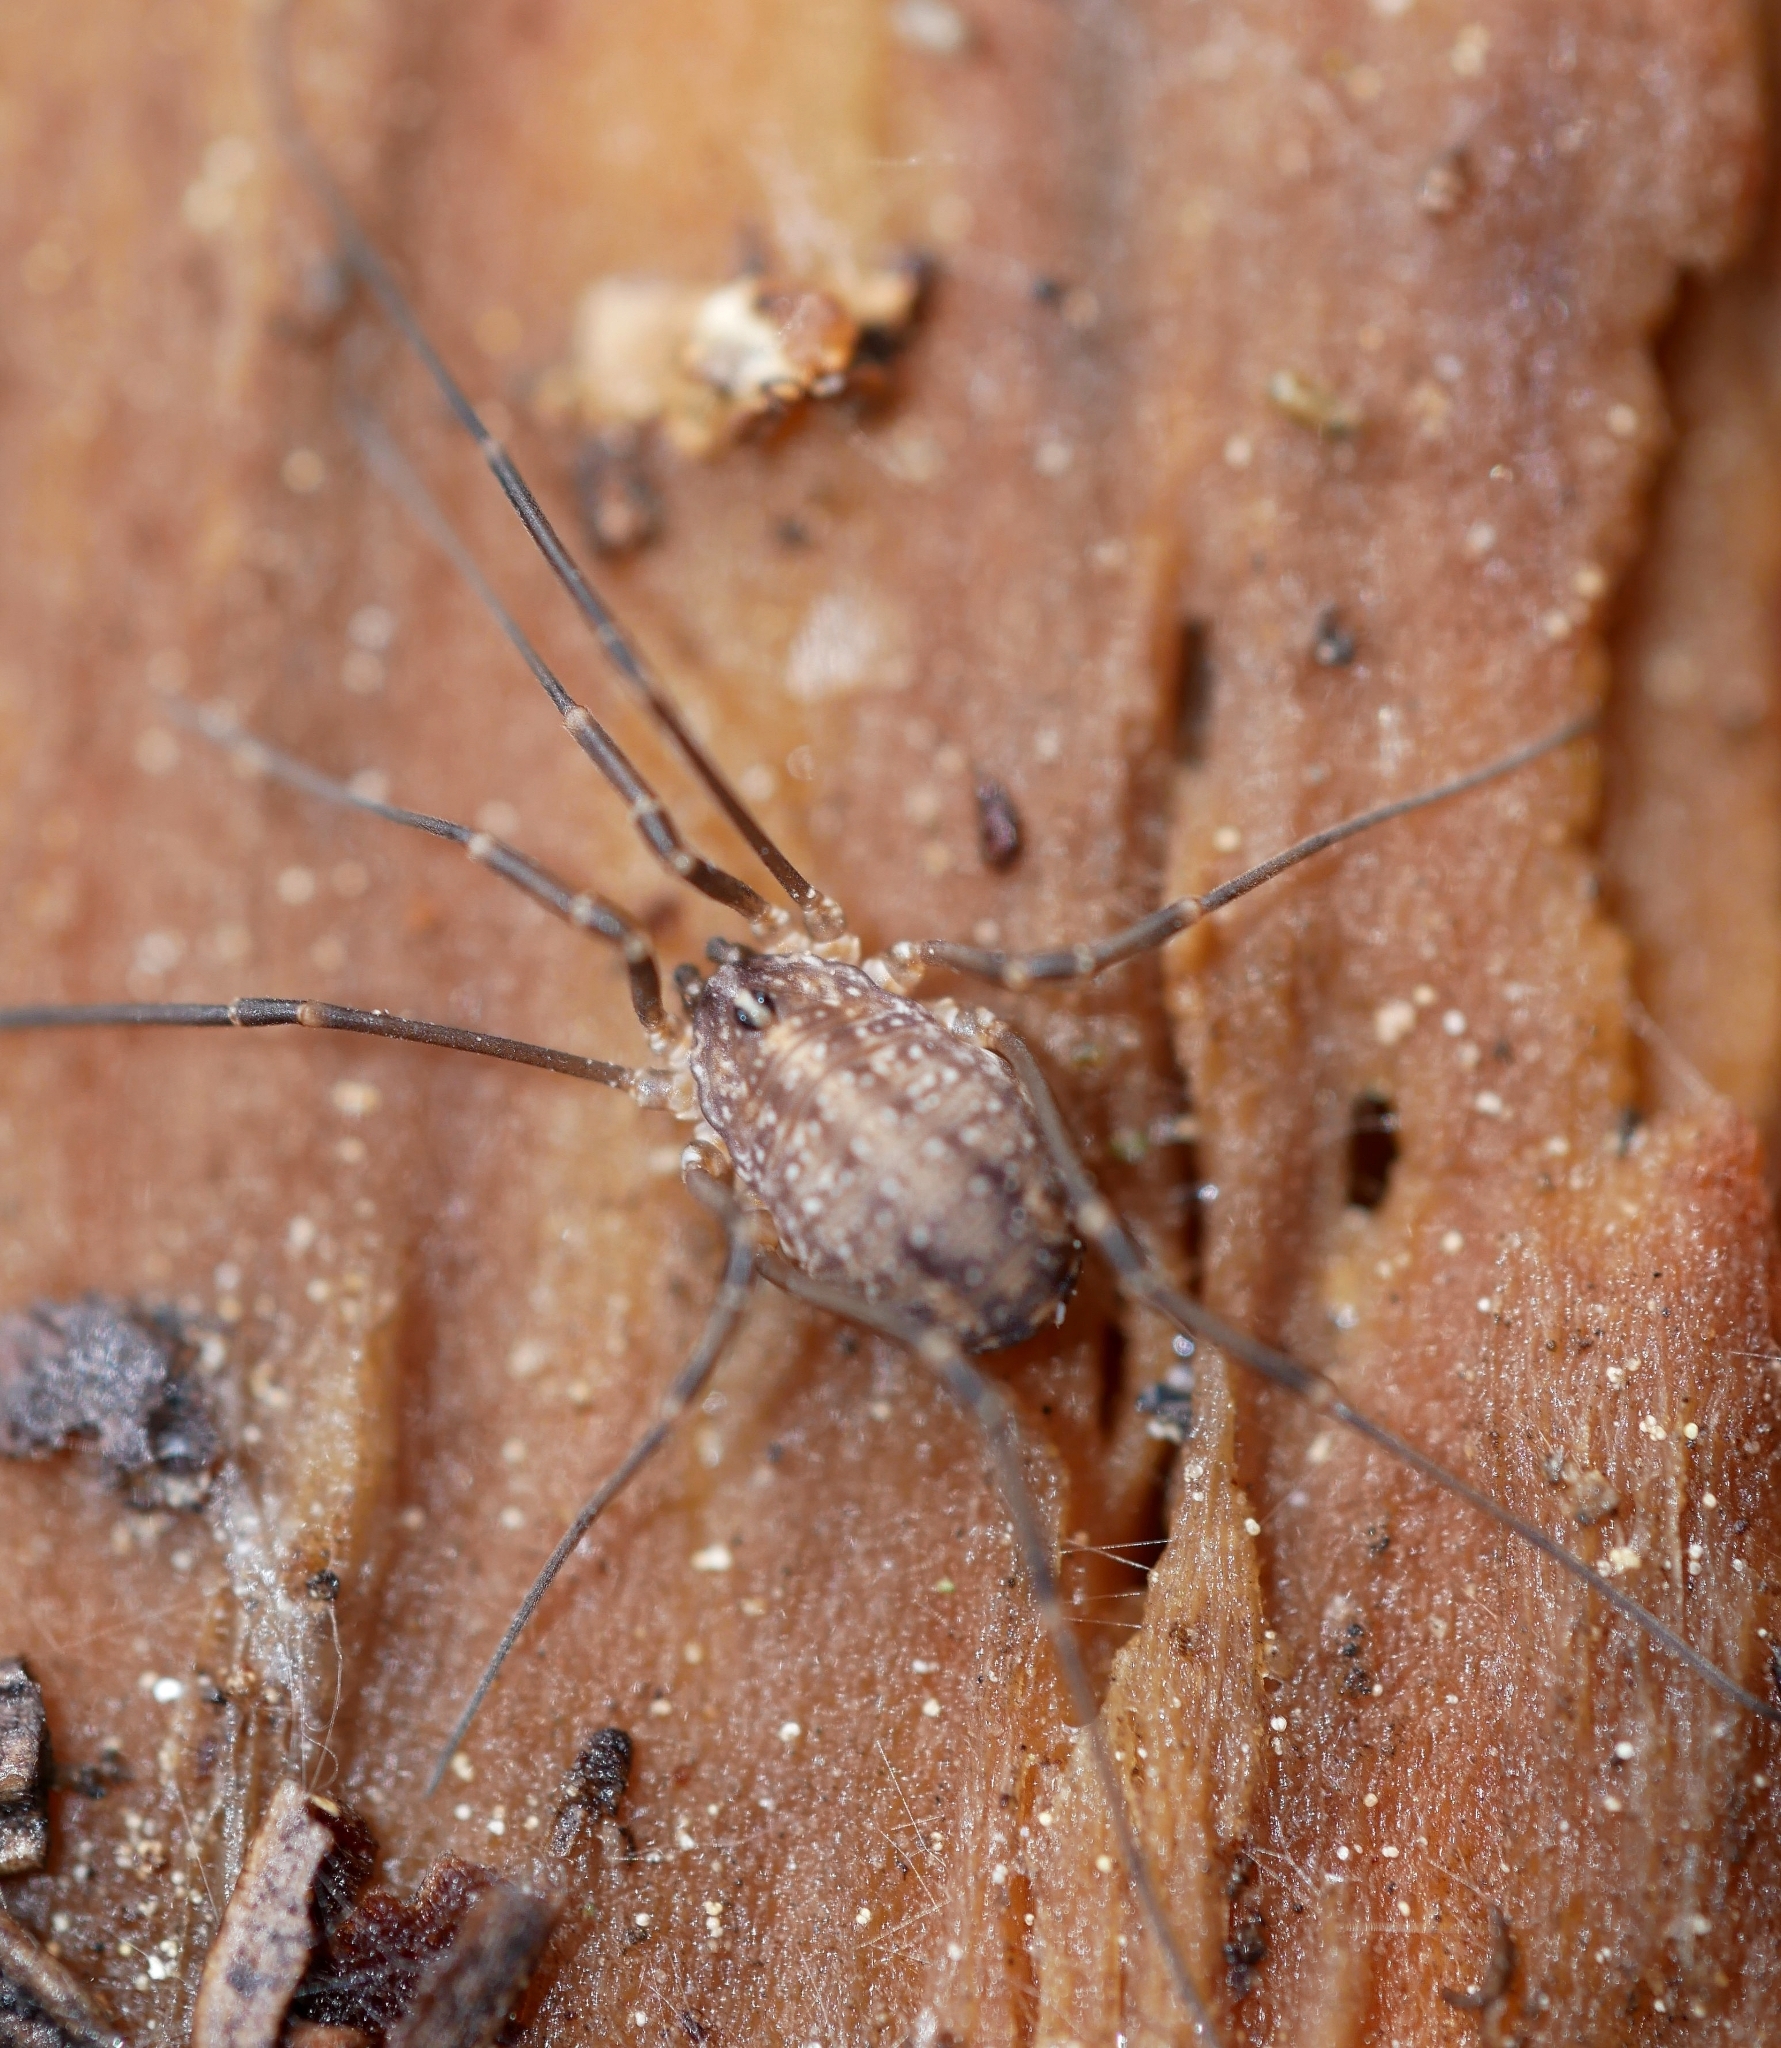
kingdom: Animalia
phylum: Arthropoda
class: Arachnida
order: Opiliones
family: Sclerosomatidae
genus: Togwoteeus
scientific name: Togwoteeus biceps
